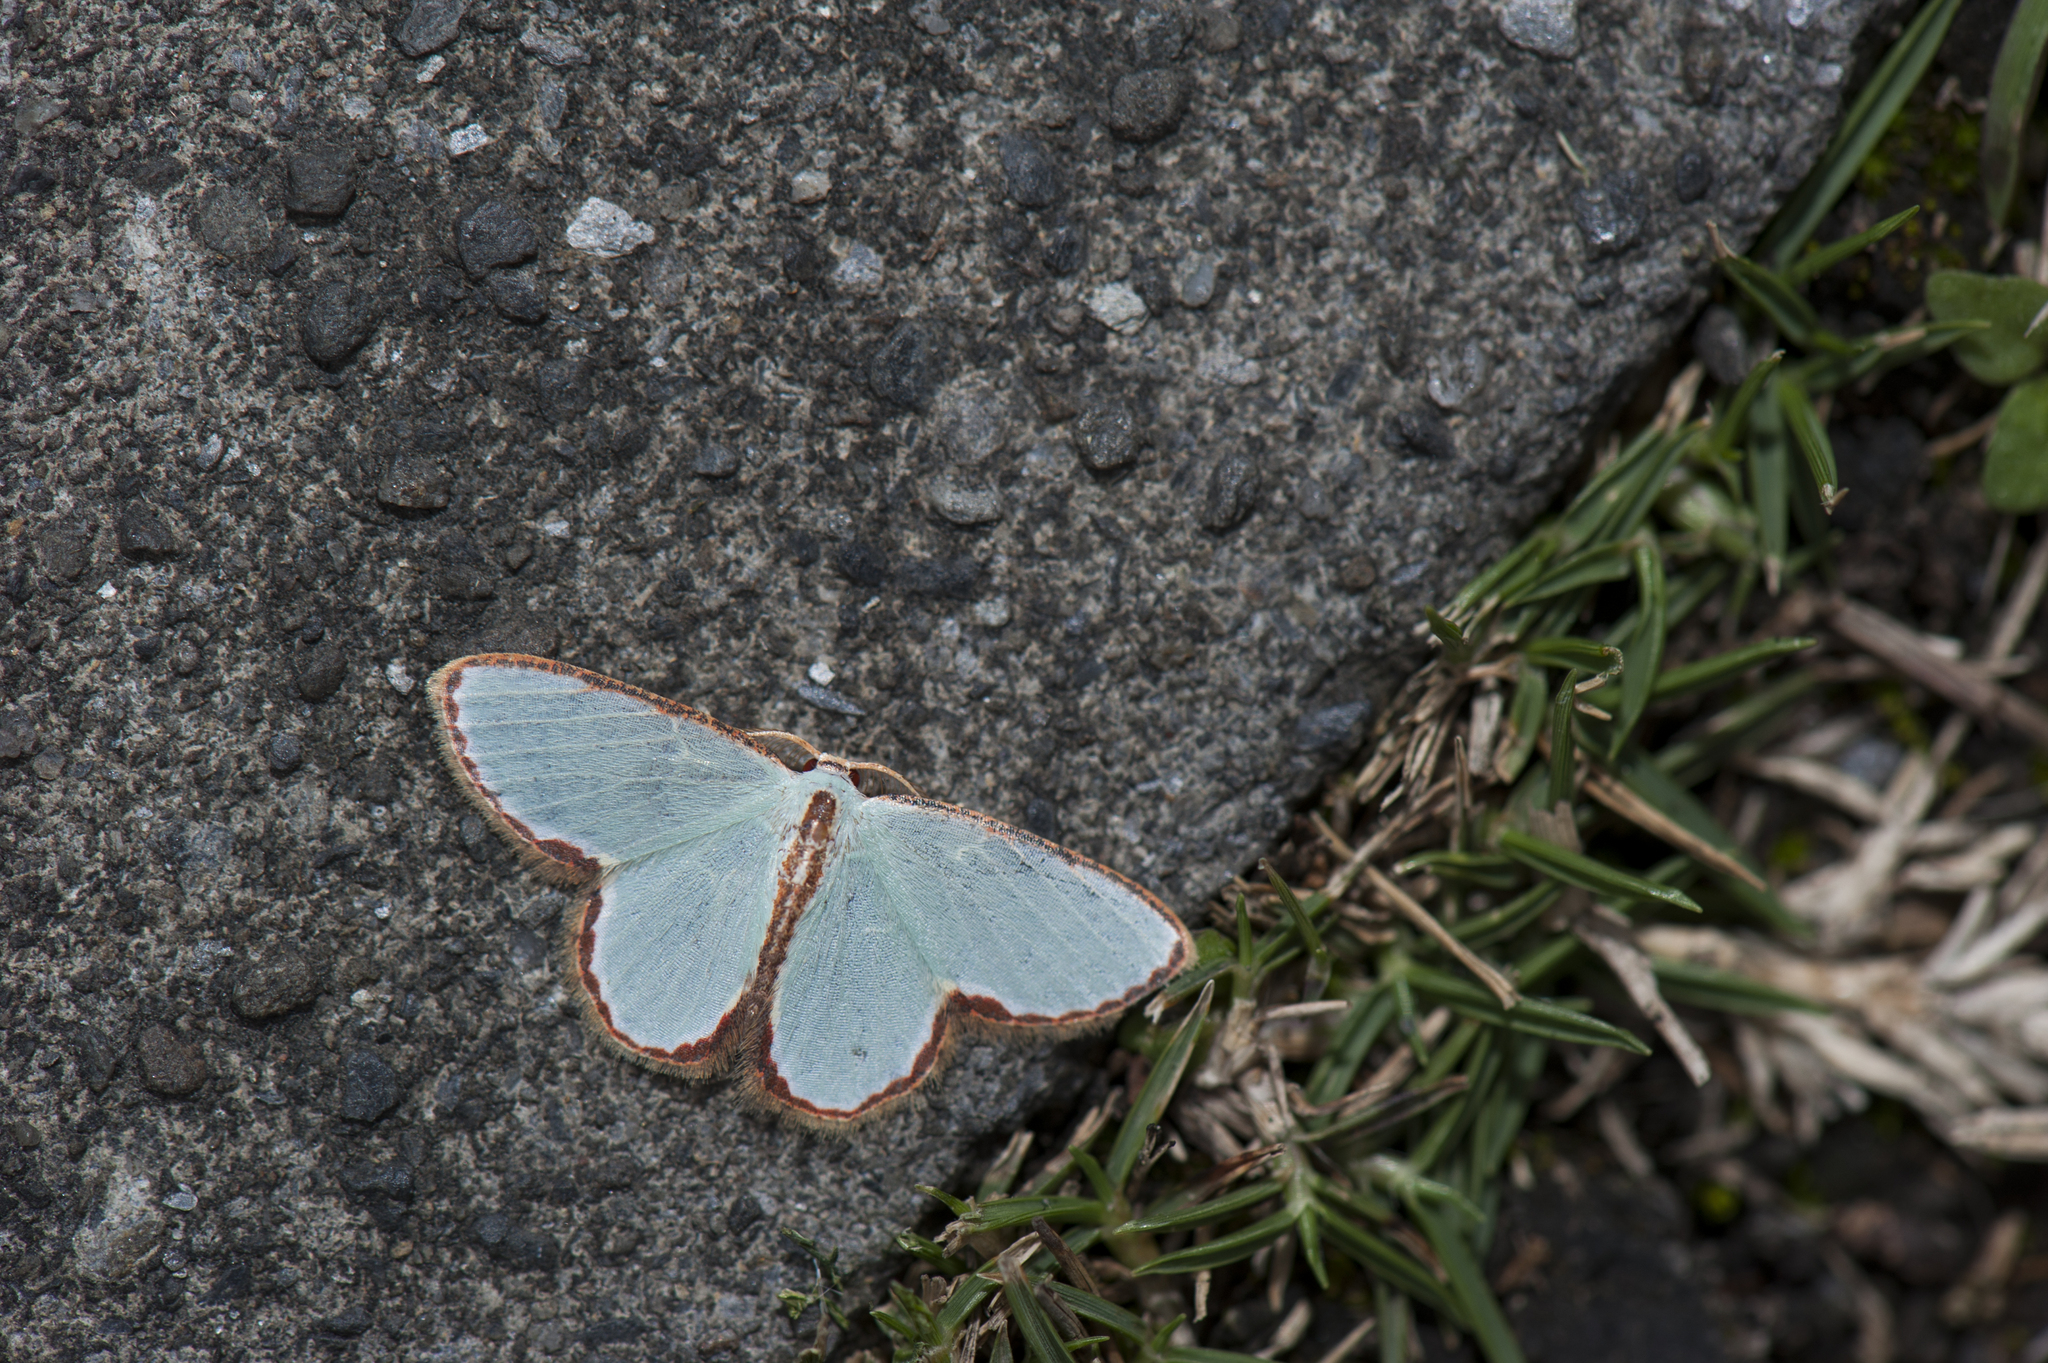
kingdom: Animalia
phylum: Arthropoda
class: Insecta
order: Lepidoptera
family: Geometridae
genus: Comostola
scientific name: Comostola pyrrhogona
